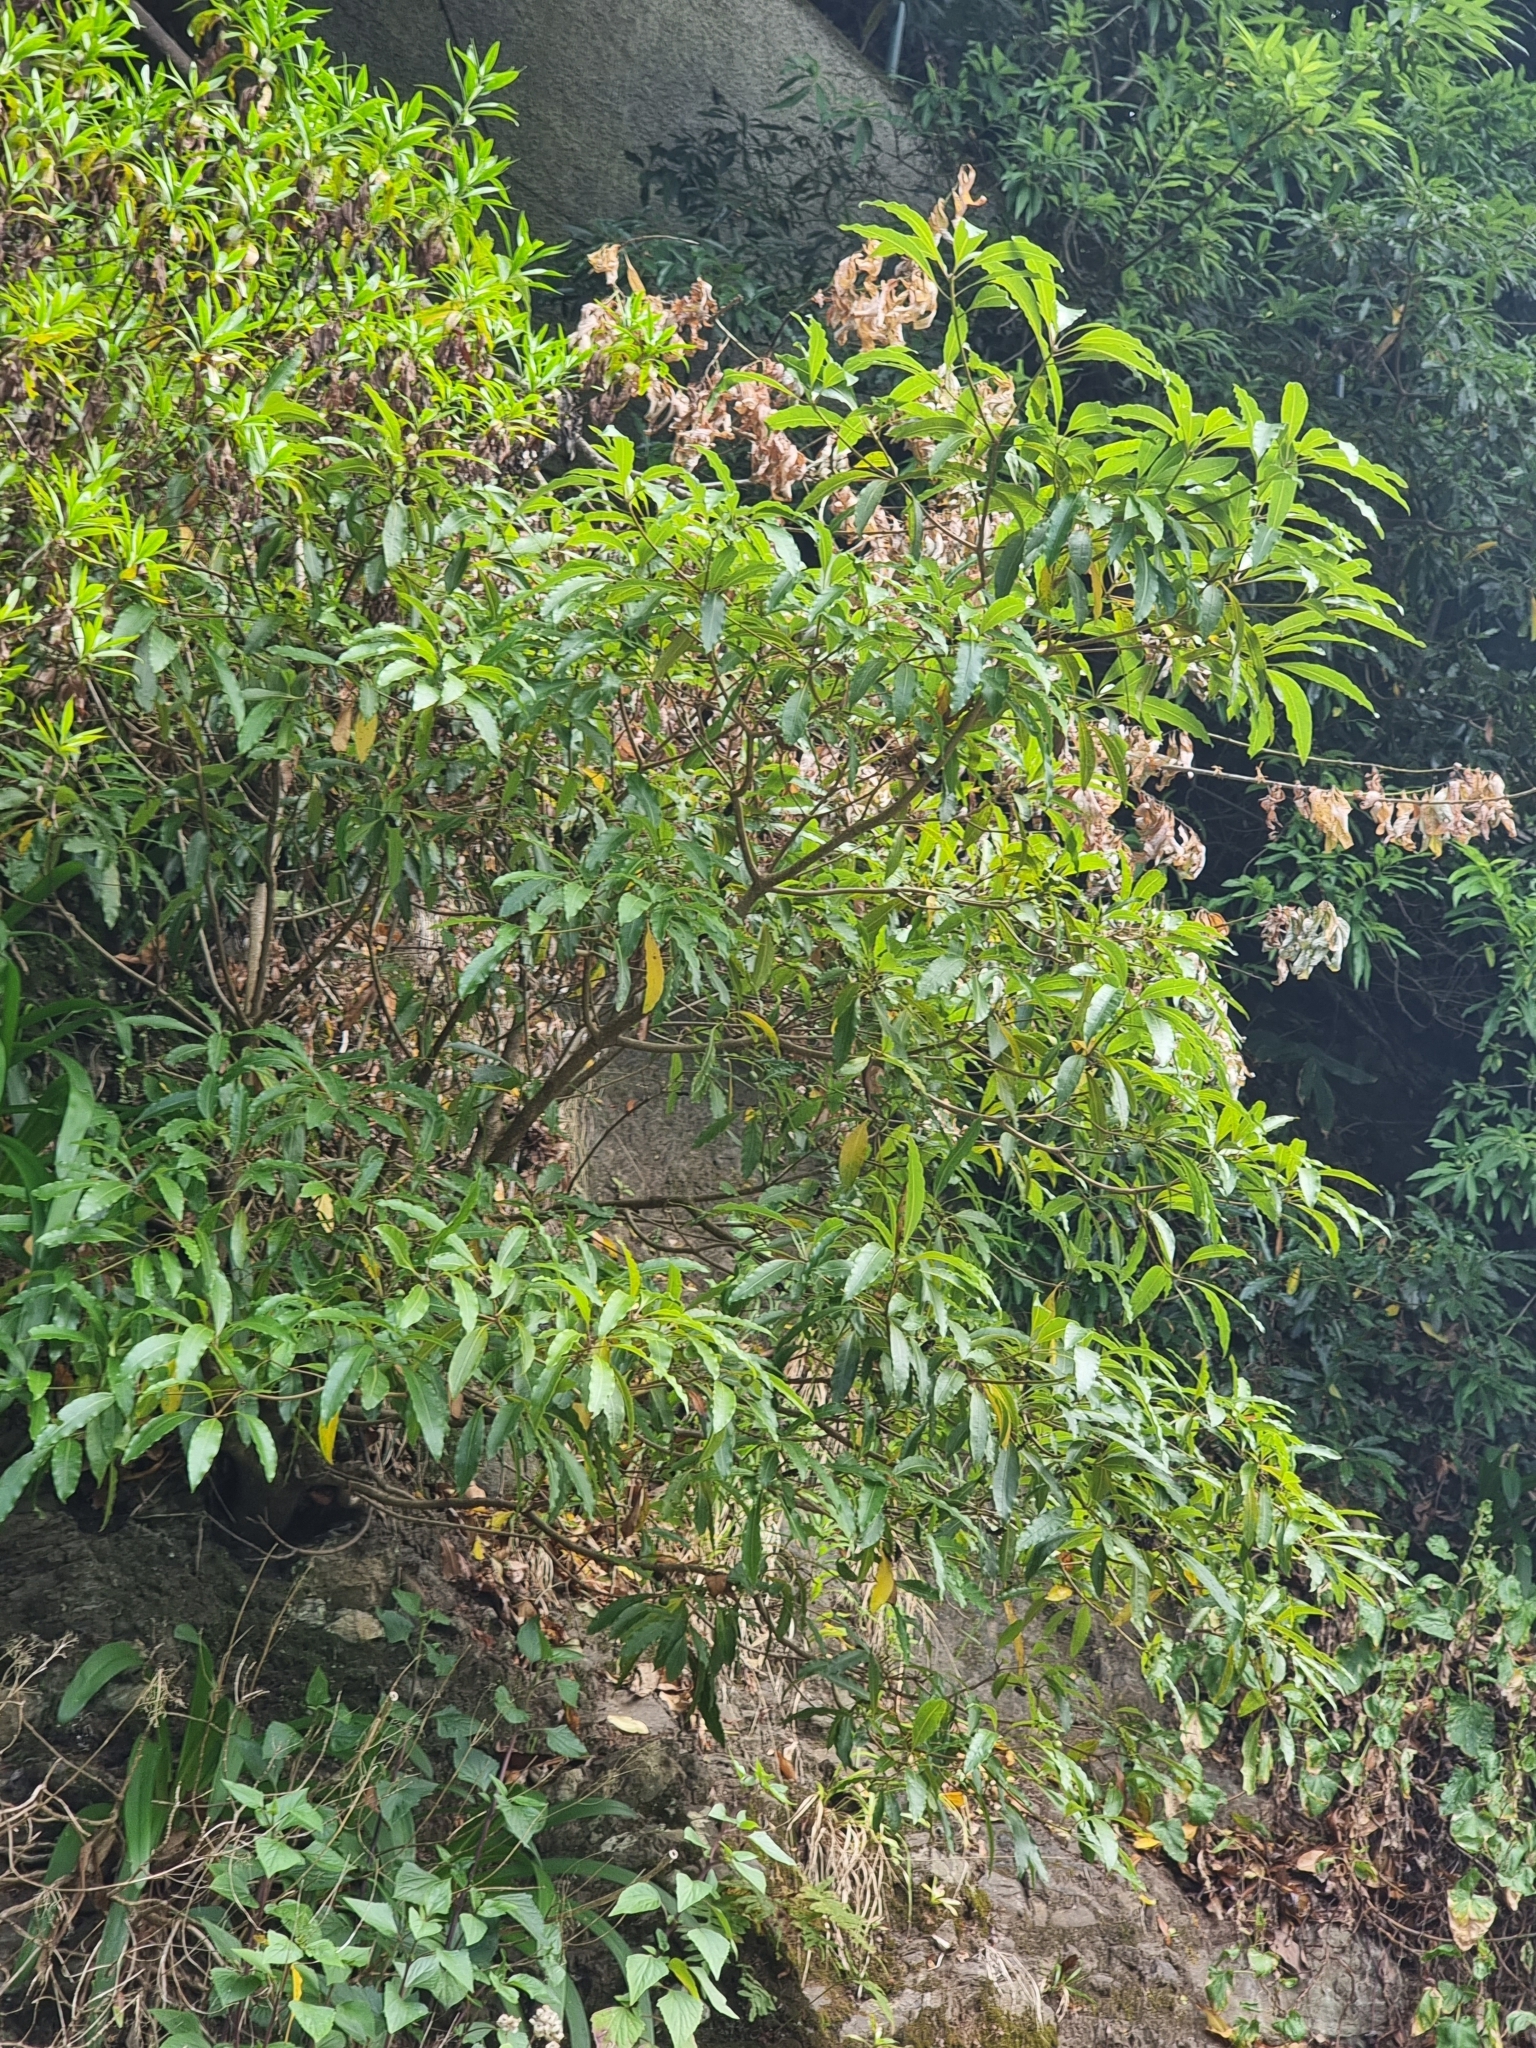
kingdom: Plantae
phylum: Tracheophyta
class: Magnoliopsida
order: Apiales
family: Pittosporaceae
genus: Pittosporum
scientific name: Pittosporum undulatum
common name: Australian cheesewood
